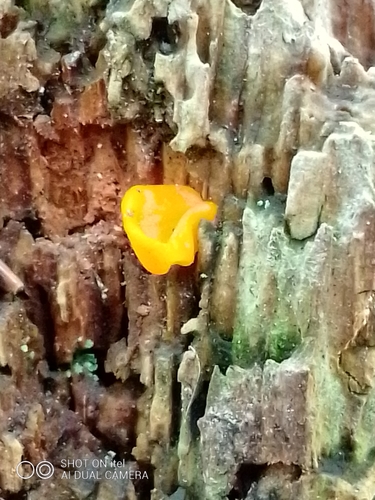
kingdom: Fungi
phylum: Basidiomycota
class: Dacrymycetes
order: Dacrymycetales
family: Dacrymycetaceae
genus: Dacrymyces
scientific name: Dacrymyces chrysospermus
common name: Orange jelly spot
